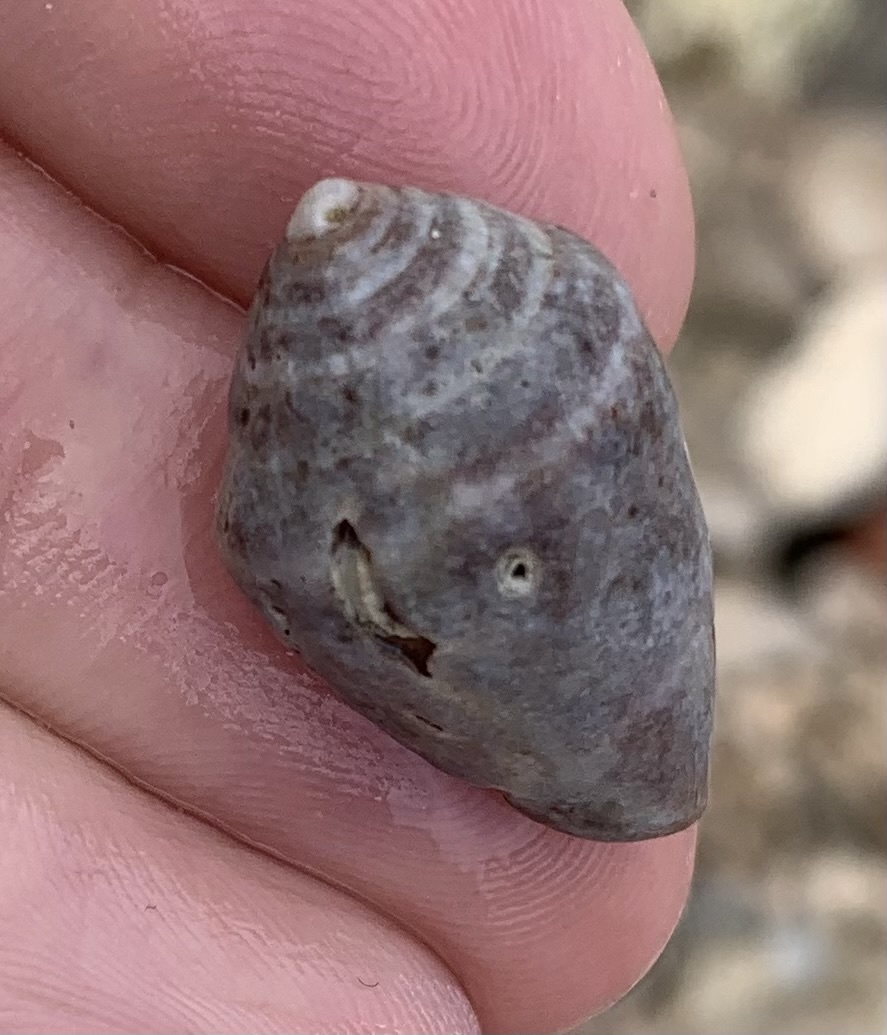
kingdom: Animalia
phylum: Mollusca
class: Gastropoda
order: Neogastropoda
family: Conidae
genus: Conus
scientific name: Conus ventricosus
